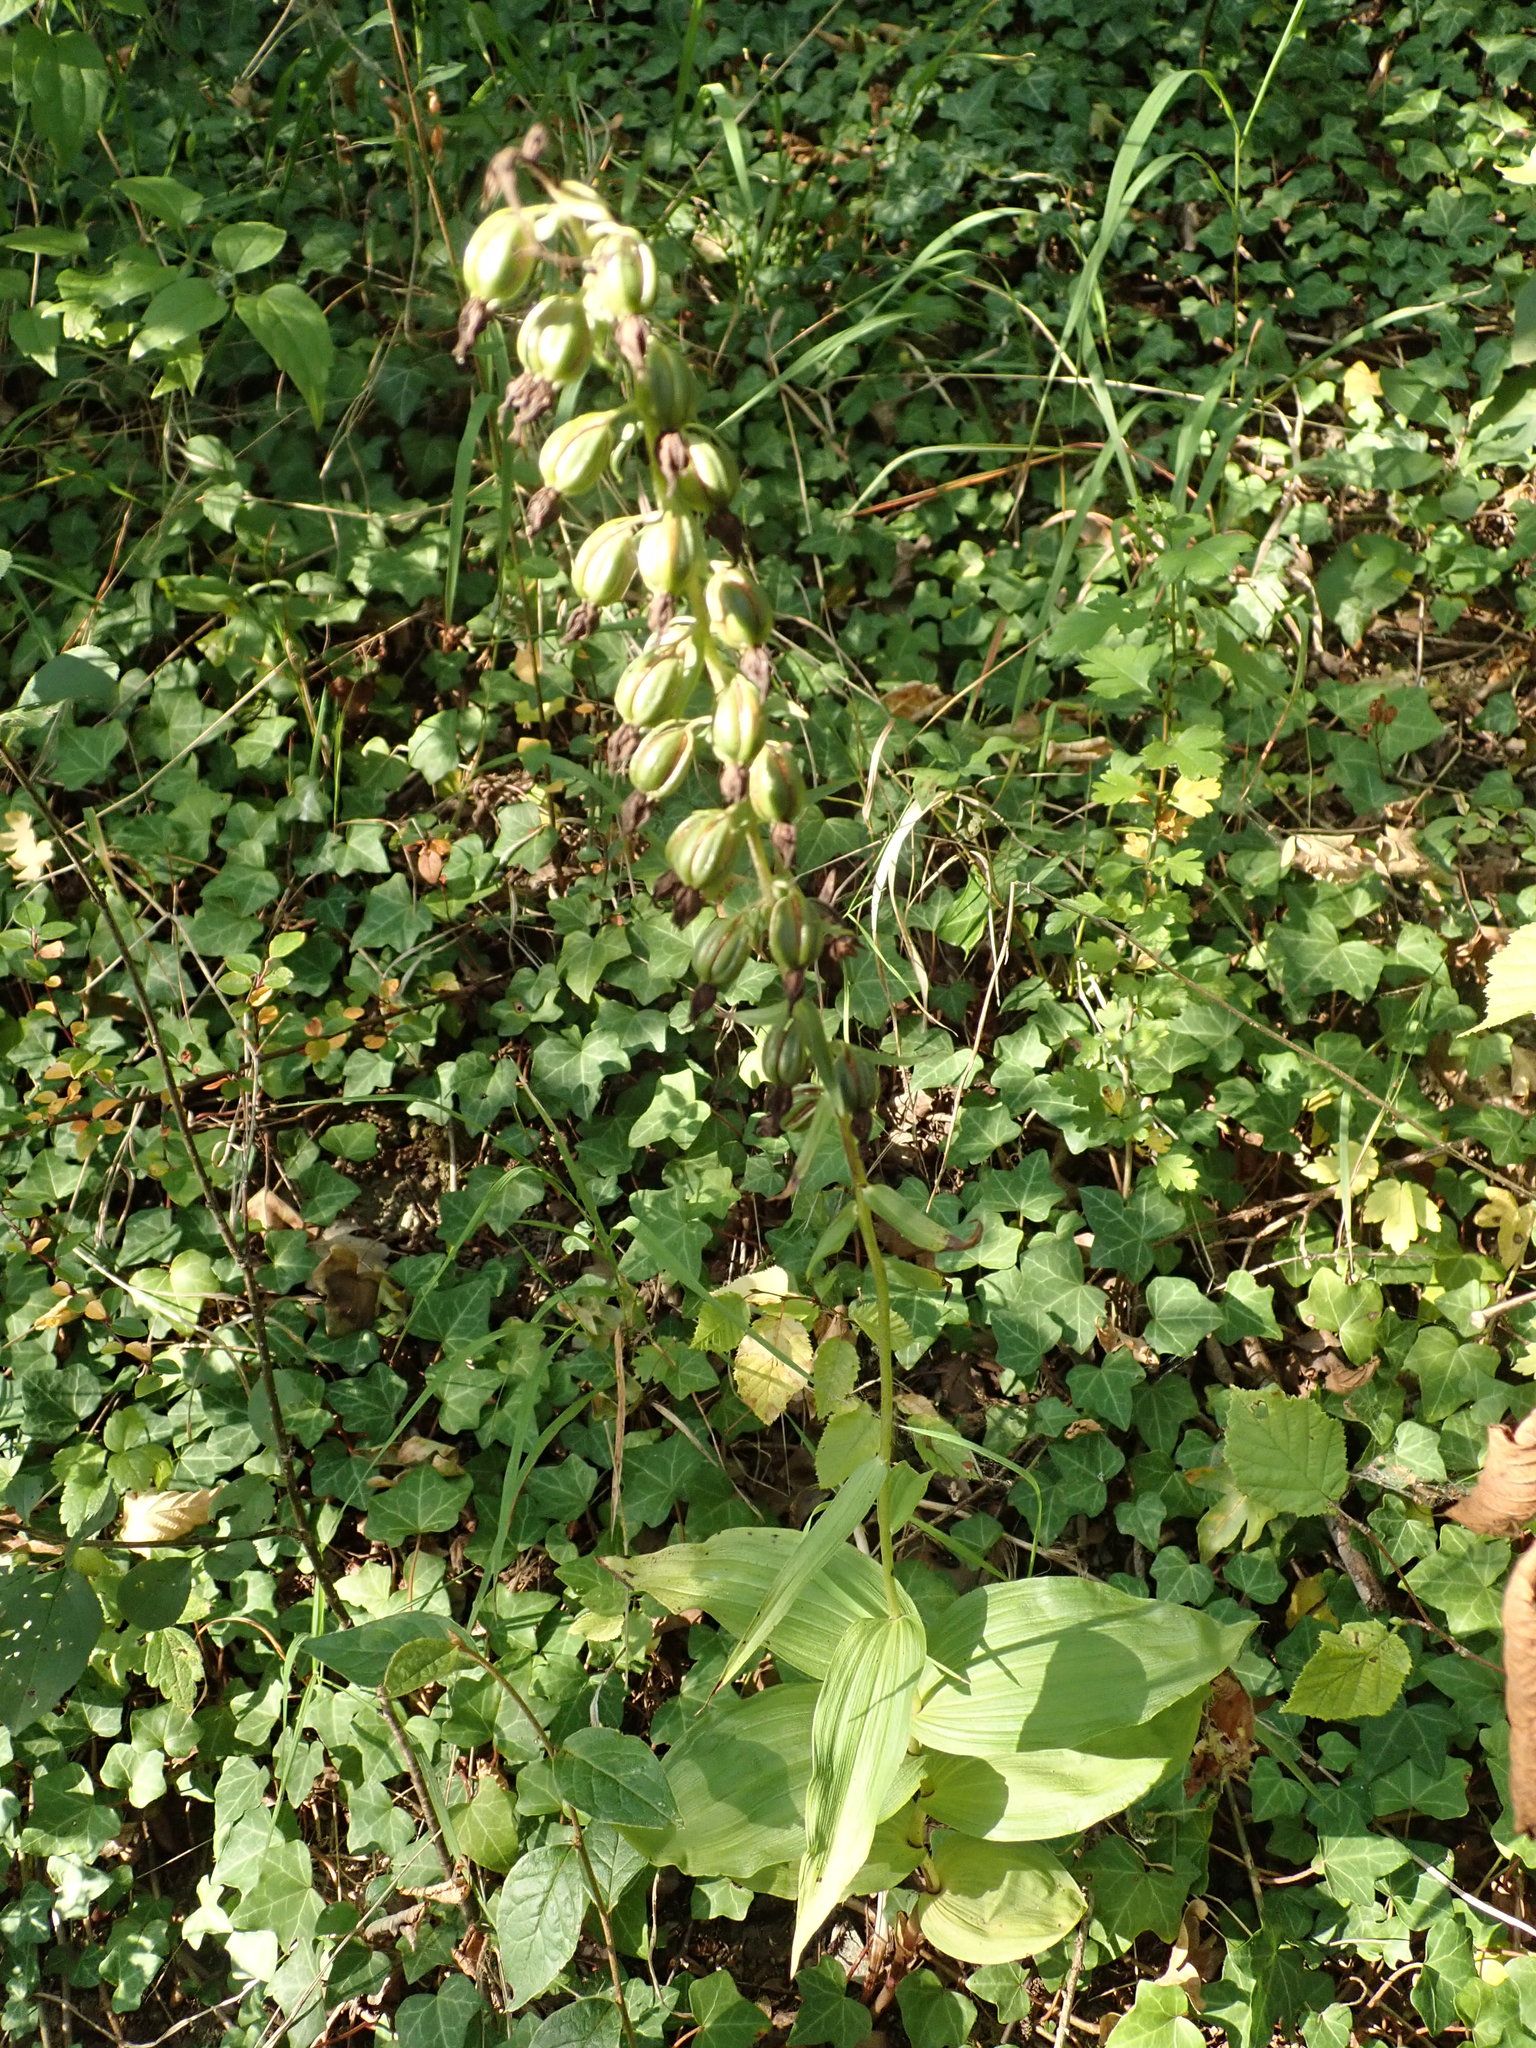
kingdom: Plantae
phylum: Tracheophyta
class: Liliopsida
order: Asparagales
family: Orchidaceae
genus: Epipactis
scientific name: Epipactis helleborine
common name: Broad-leaved helleborine
